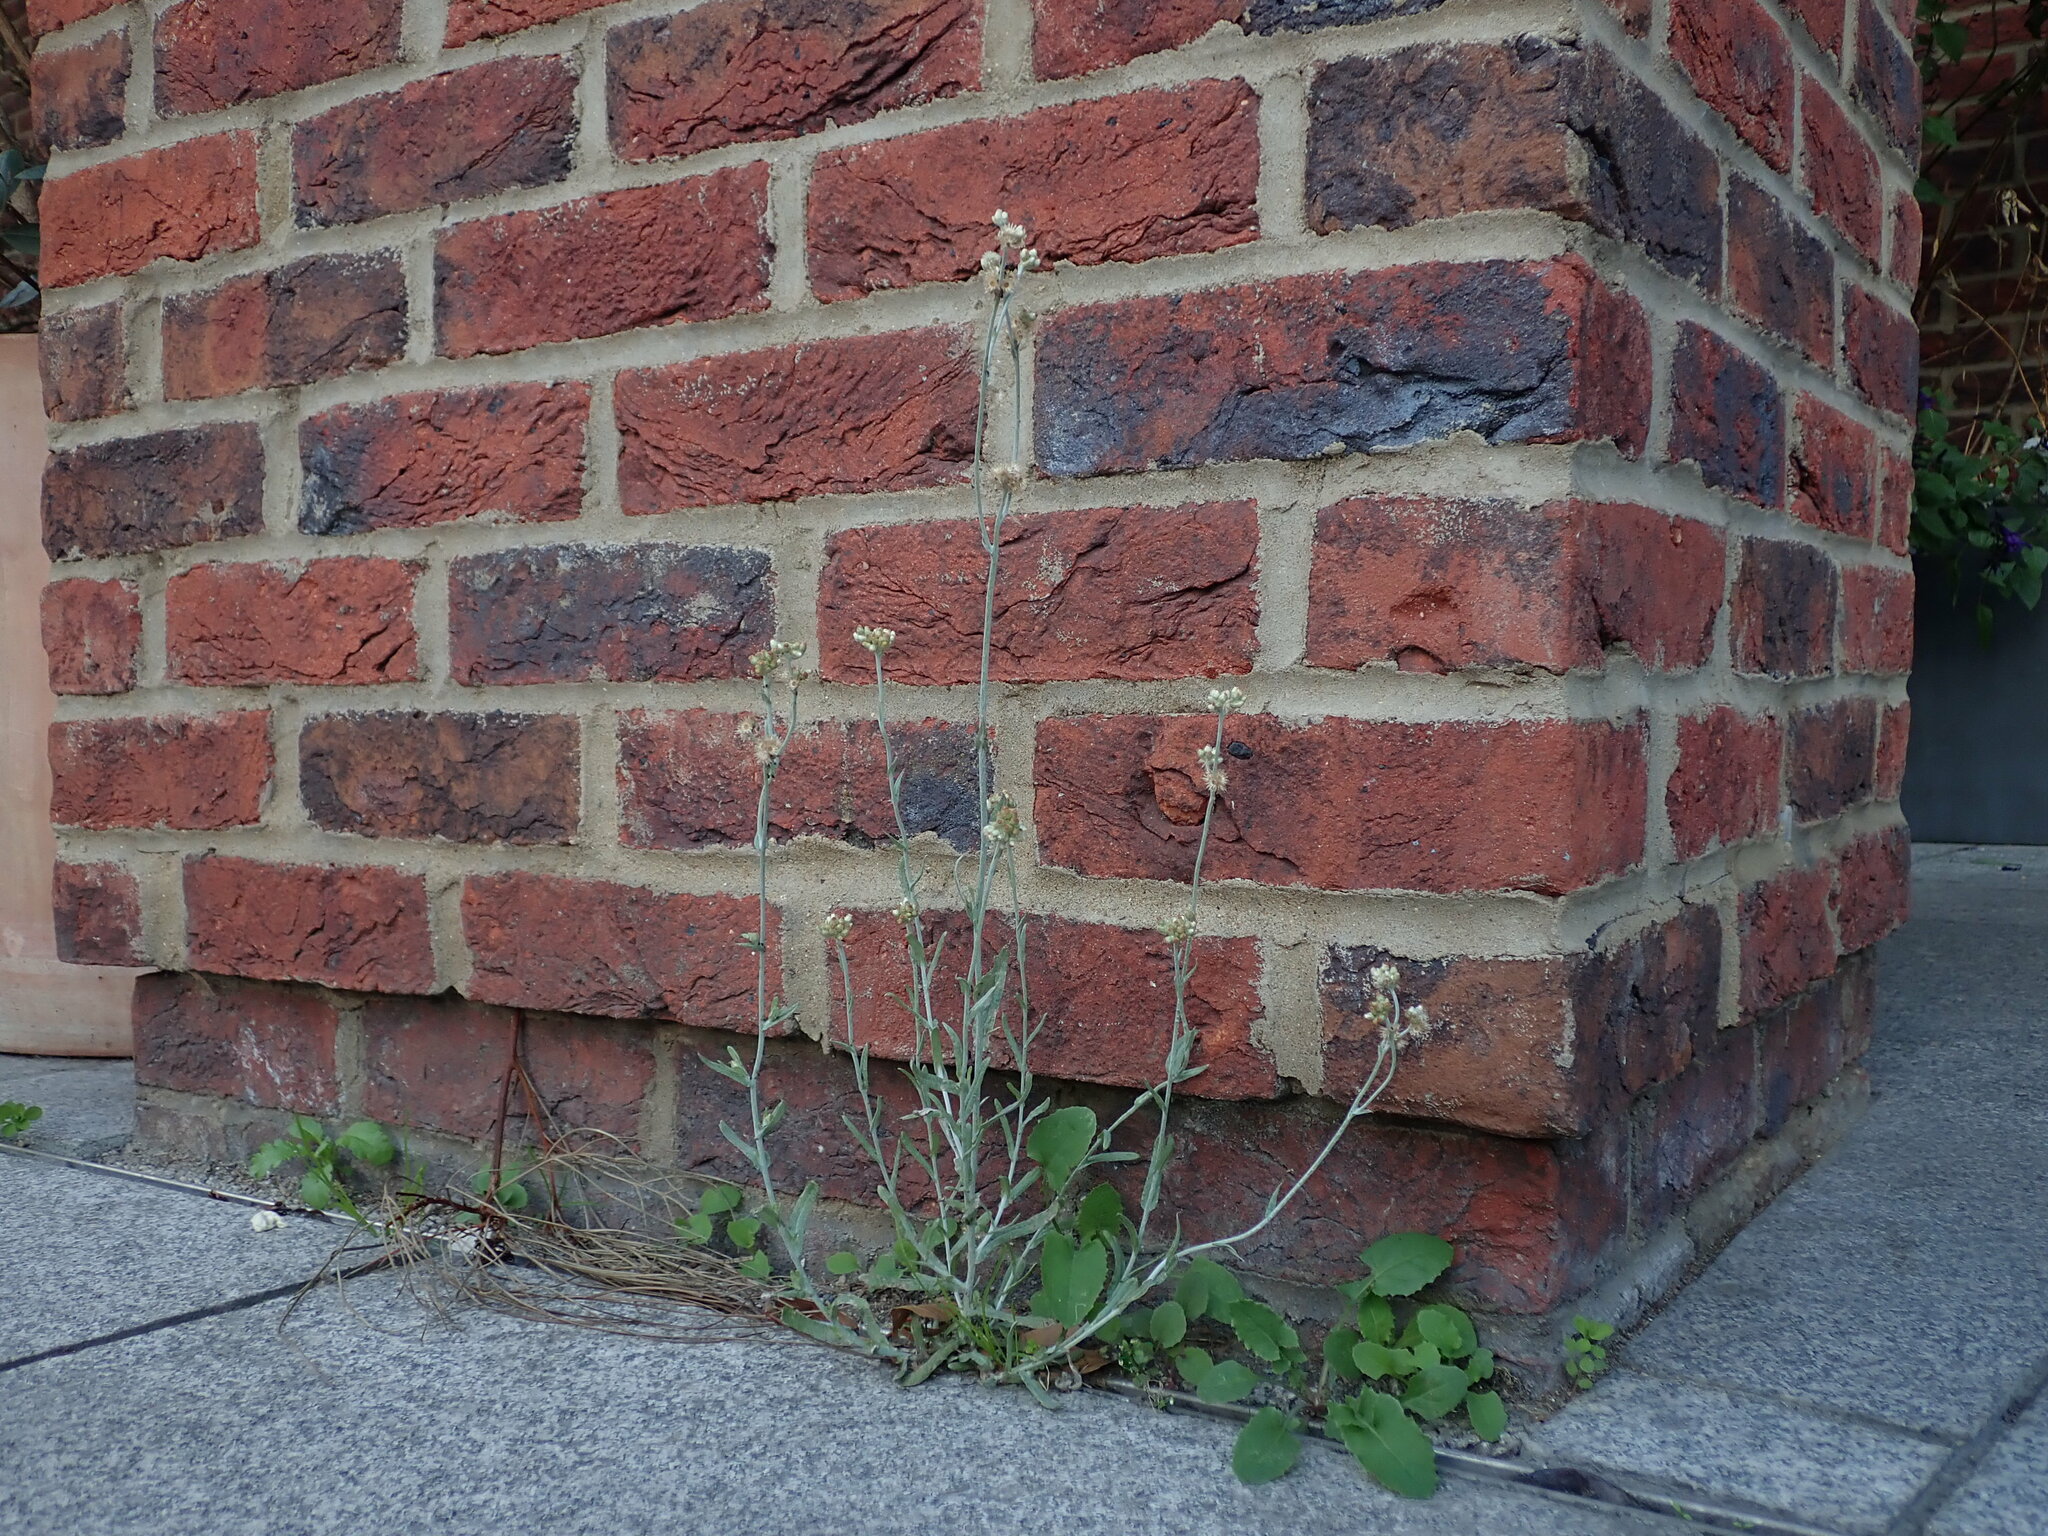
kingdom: Plantae
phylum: Tracheophyta
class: Magnoliopsida
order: Asterales
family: Asteraceae
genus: Helichrysum
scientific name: Helichrysum luteoalbum
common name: Daisy
